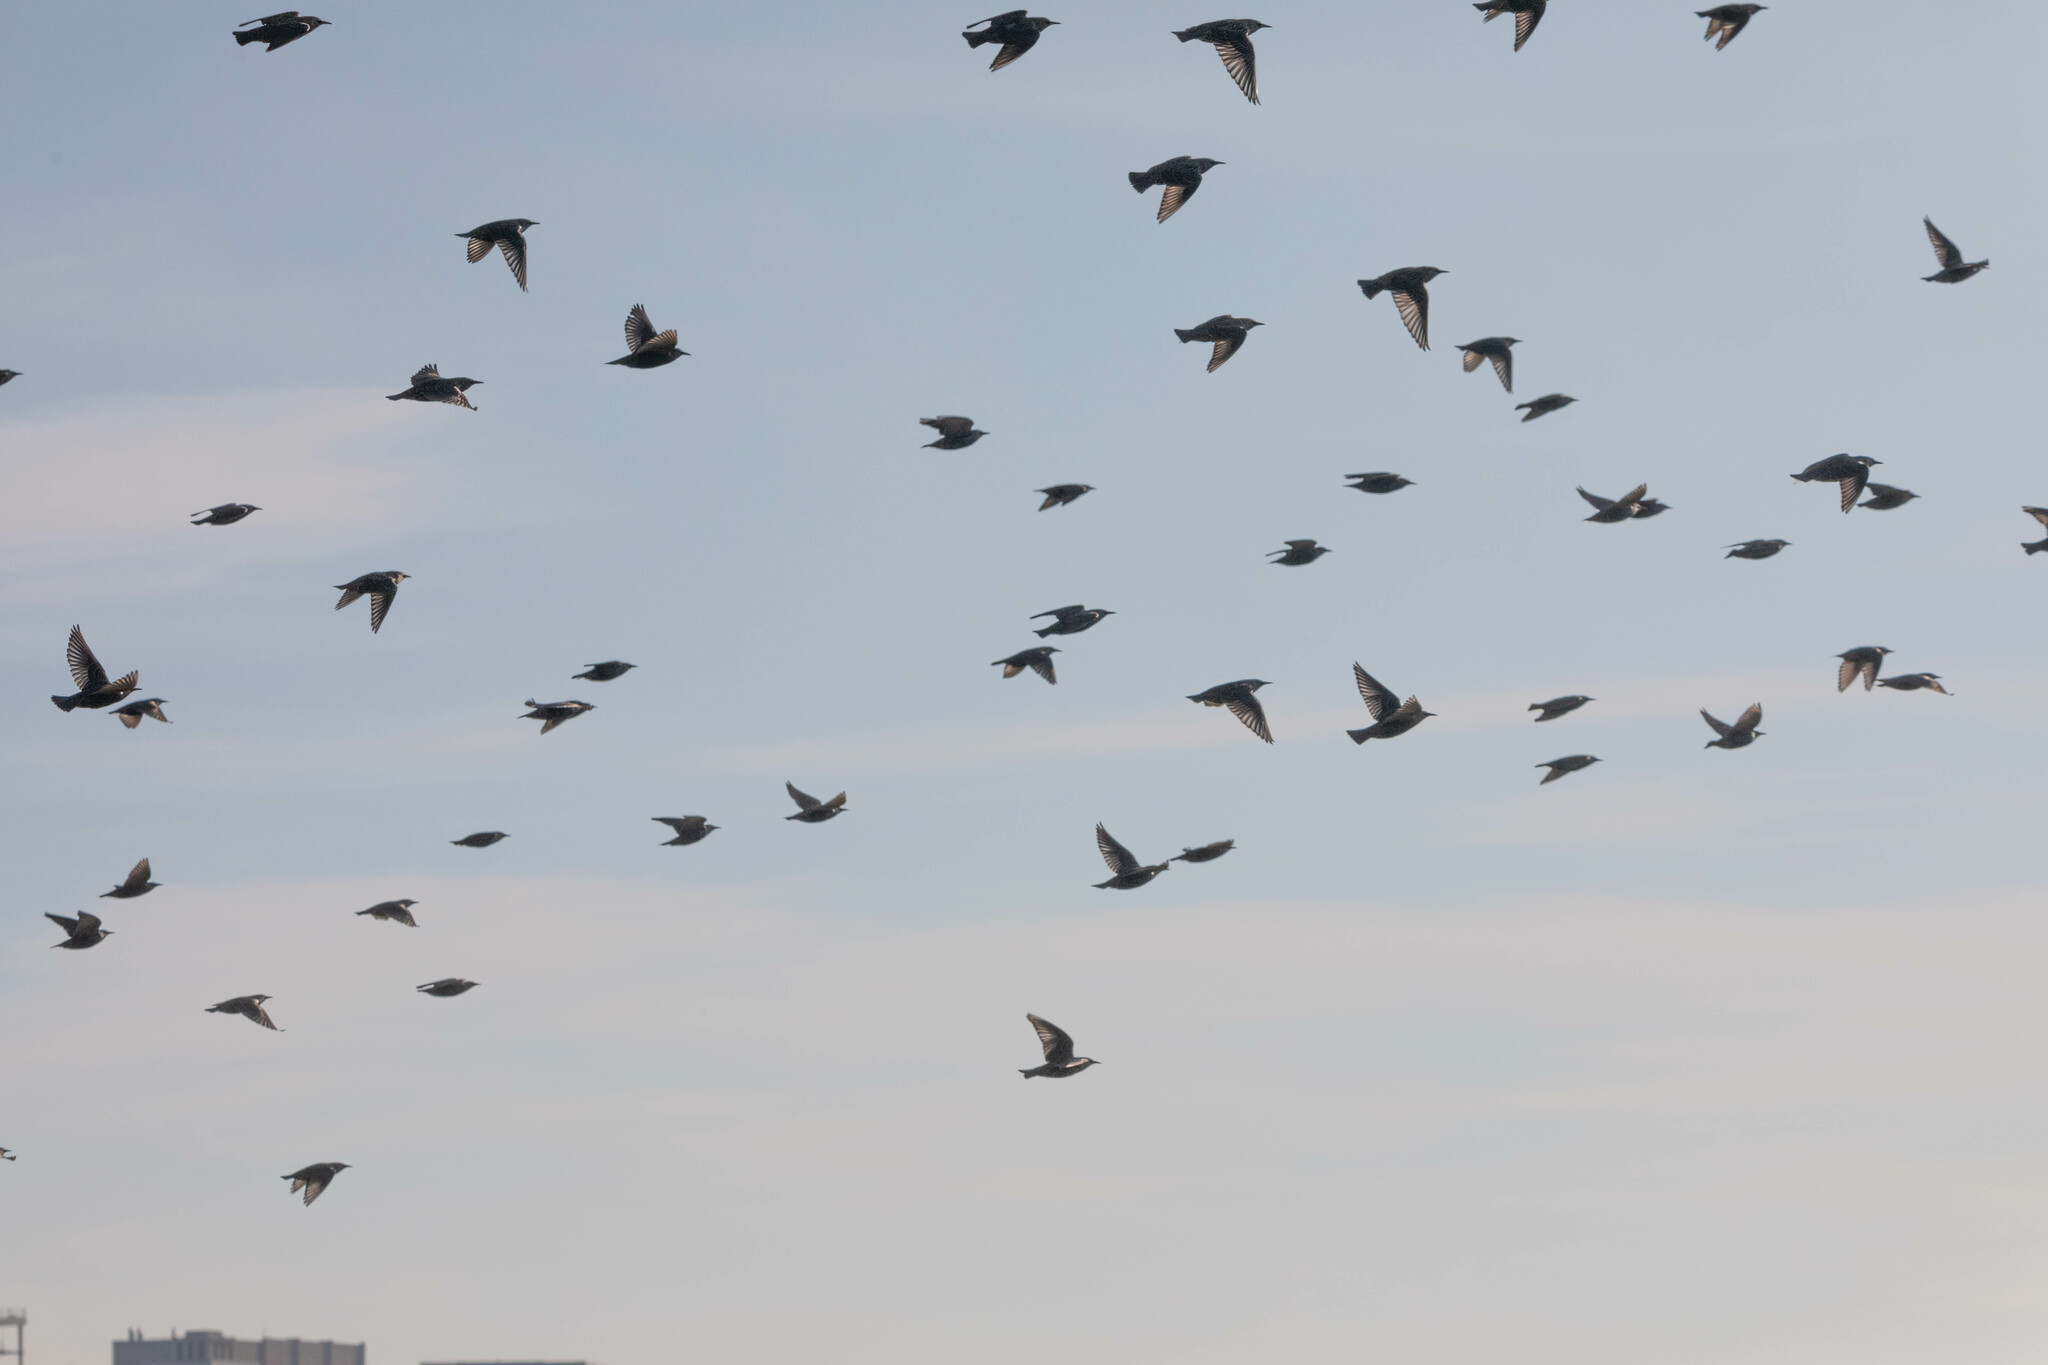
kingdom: Animalia
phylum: Chordata
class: Aves
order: Passeriformes
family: Sturnidae
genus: Sturnus
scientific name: Sturnus vulgaris
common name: Common starling
